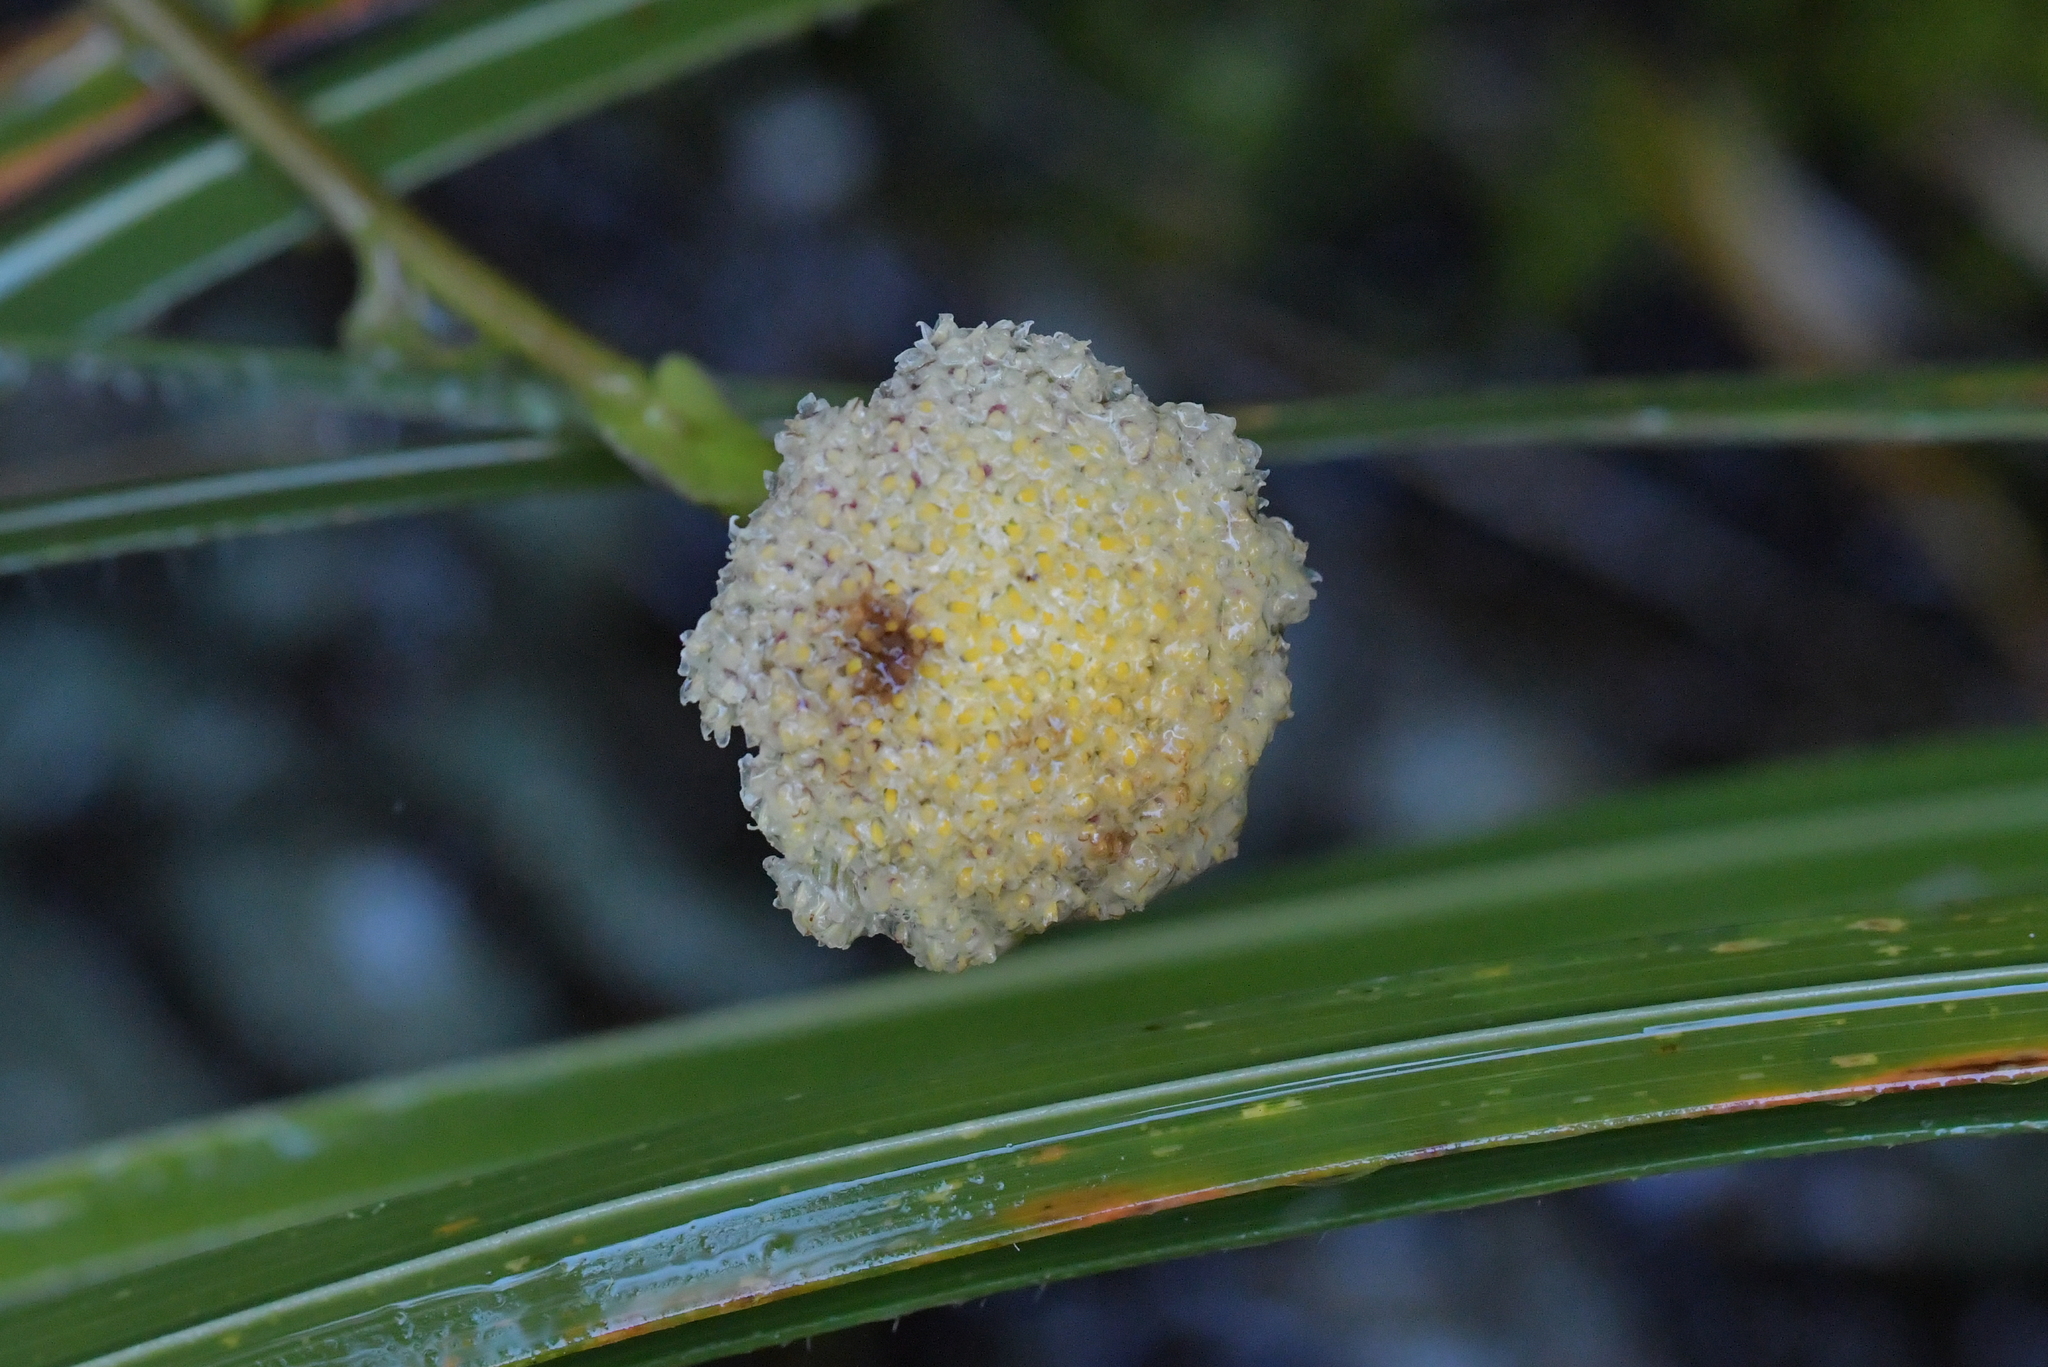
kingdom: Plantae
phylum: Tracheophyta
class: Magnoliopsida
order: Asterales
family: Asteraceae
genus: Craspedia
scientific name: Craspedia uniflora
